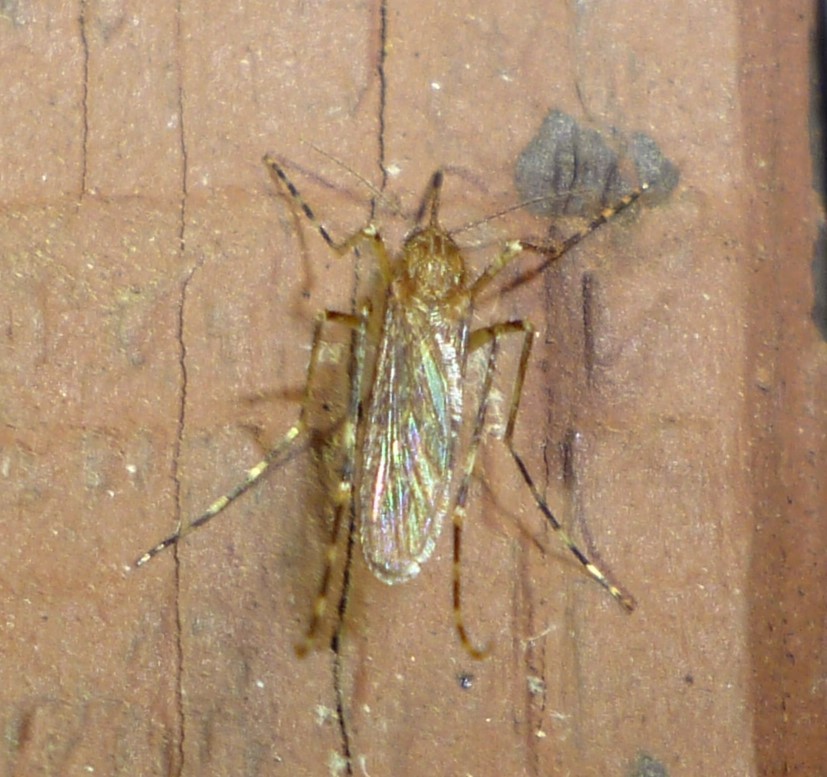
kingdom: Animalia
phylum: Arthropoda
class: Insecta
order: Diptera
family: Culicidae
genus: Coquillettidia
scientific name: Coquillettidia perturbans
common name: Cattail mosquito
